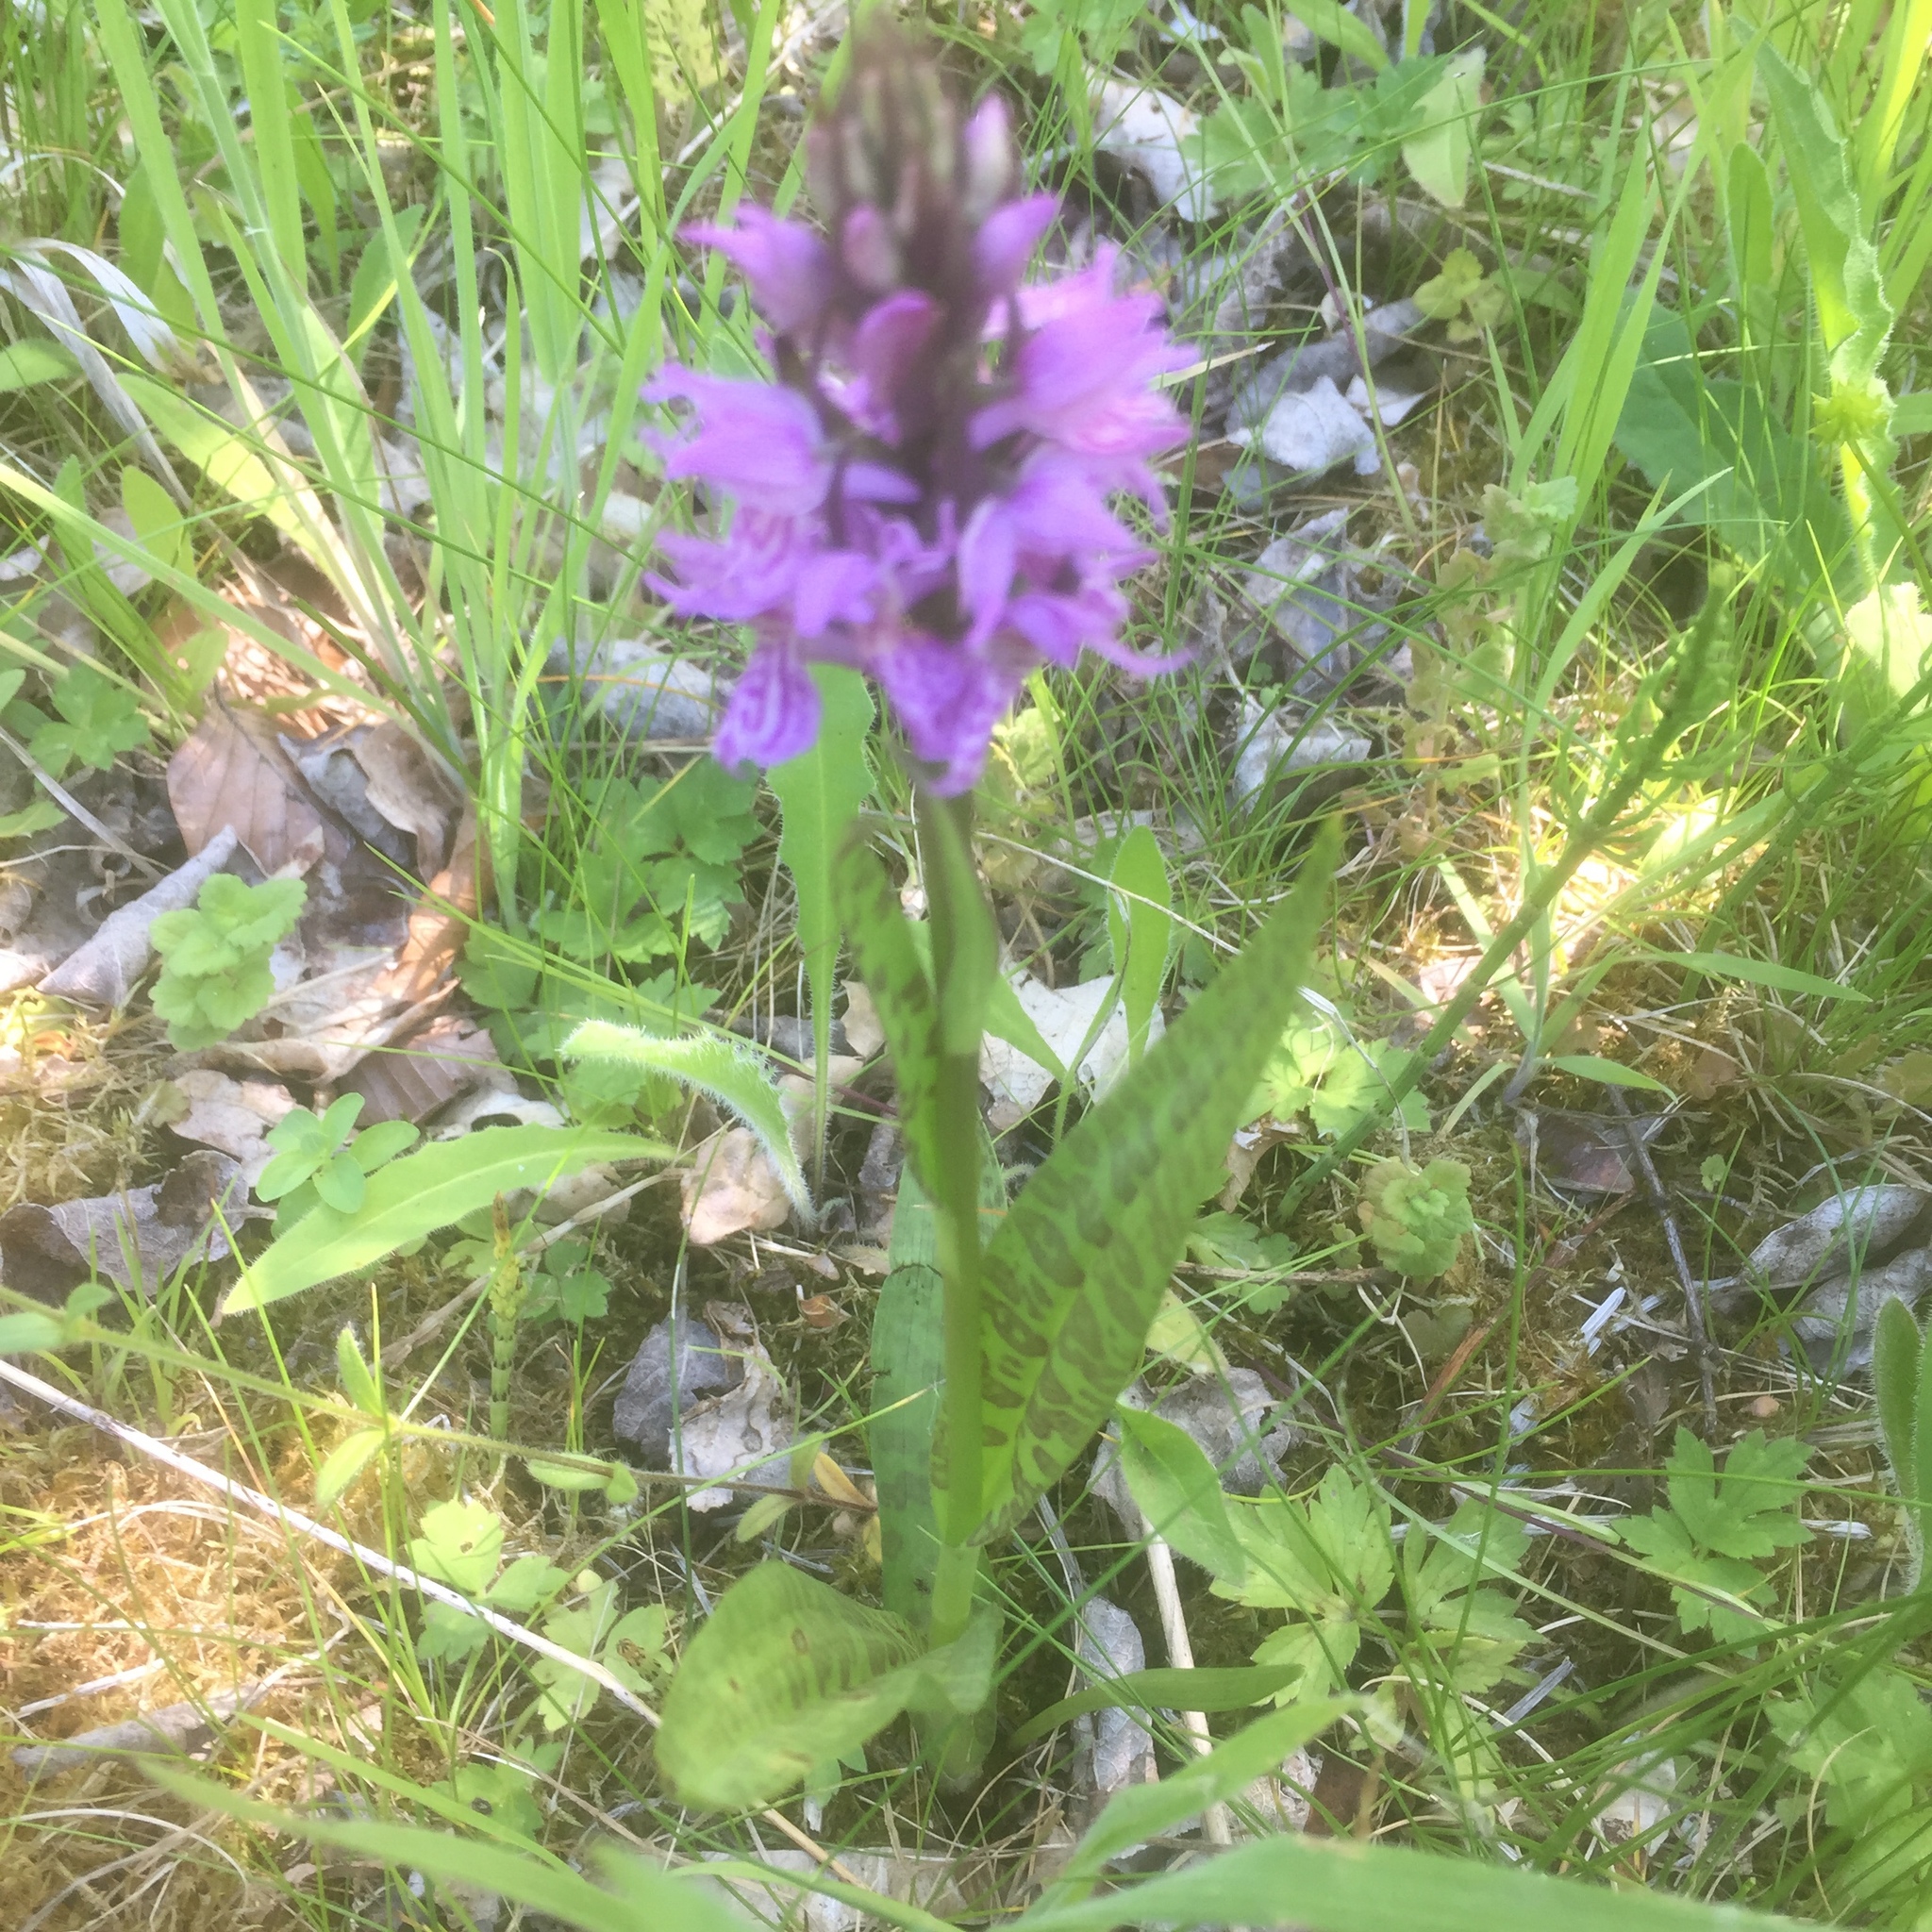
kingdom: Plantae
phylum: Tracheophyta
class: Liliopsida
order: Asparagales
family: Orchidaceae
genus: Dactylorhiza
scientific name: Dactylorhiza majalis
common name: Marsh orchid
